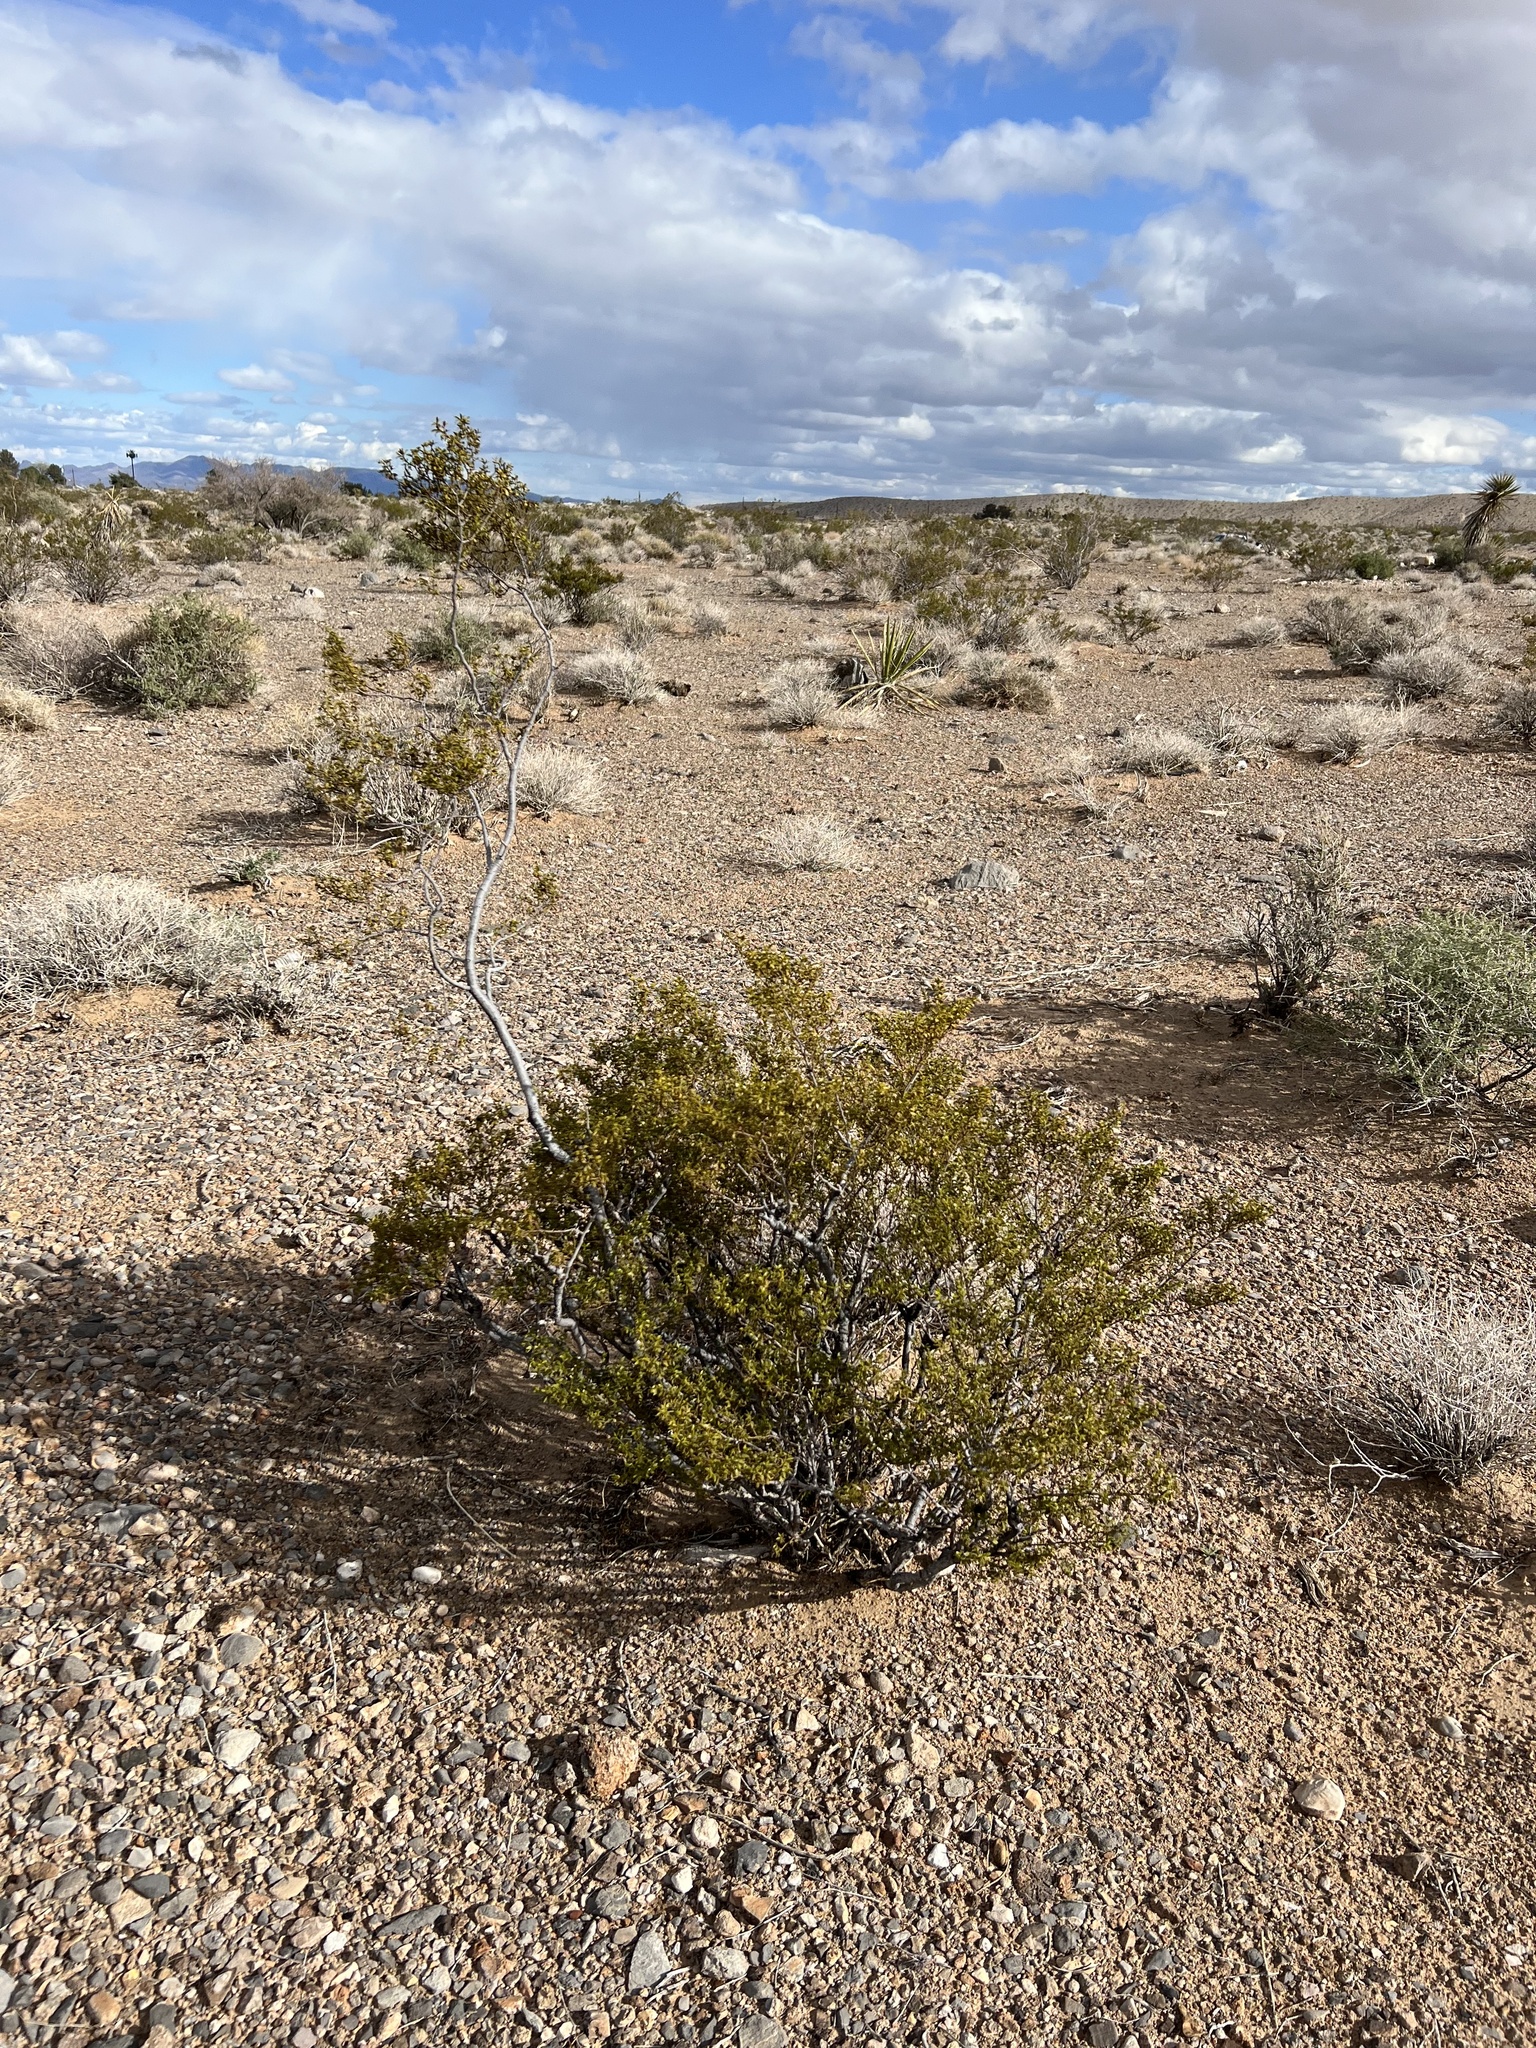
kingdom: Plantae
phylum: Tracheophyta
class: Magnoliopsida
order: Zygophyllales
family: Zygophyllaceae
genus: Larrea
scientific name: Larrea tridentata
